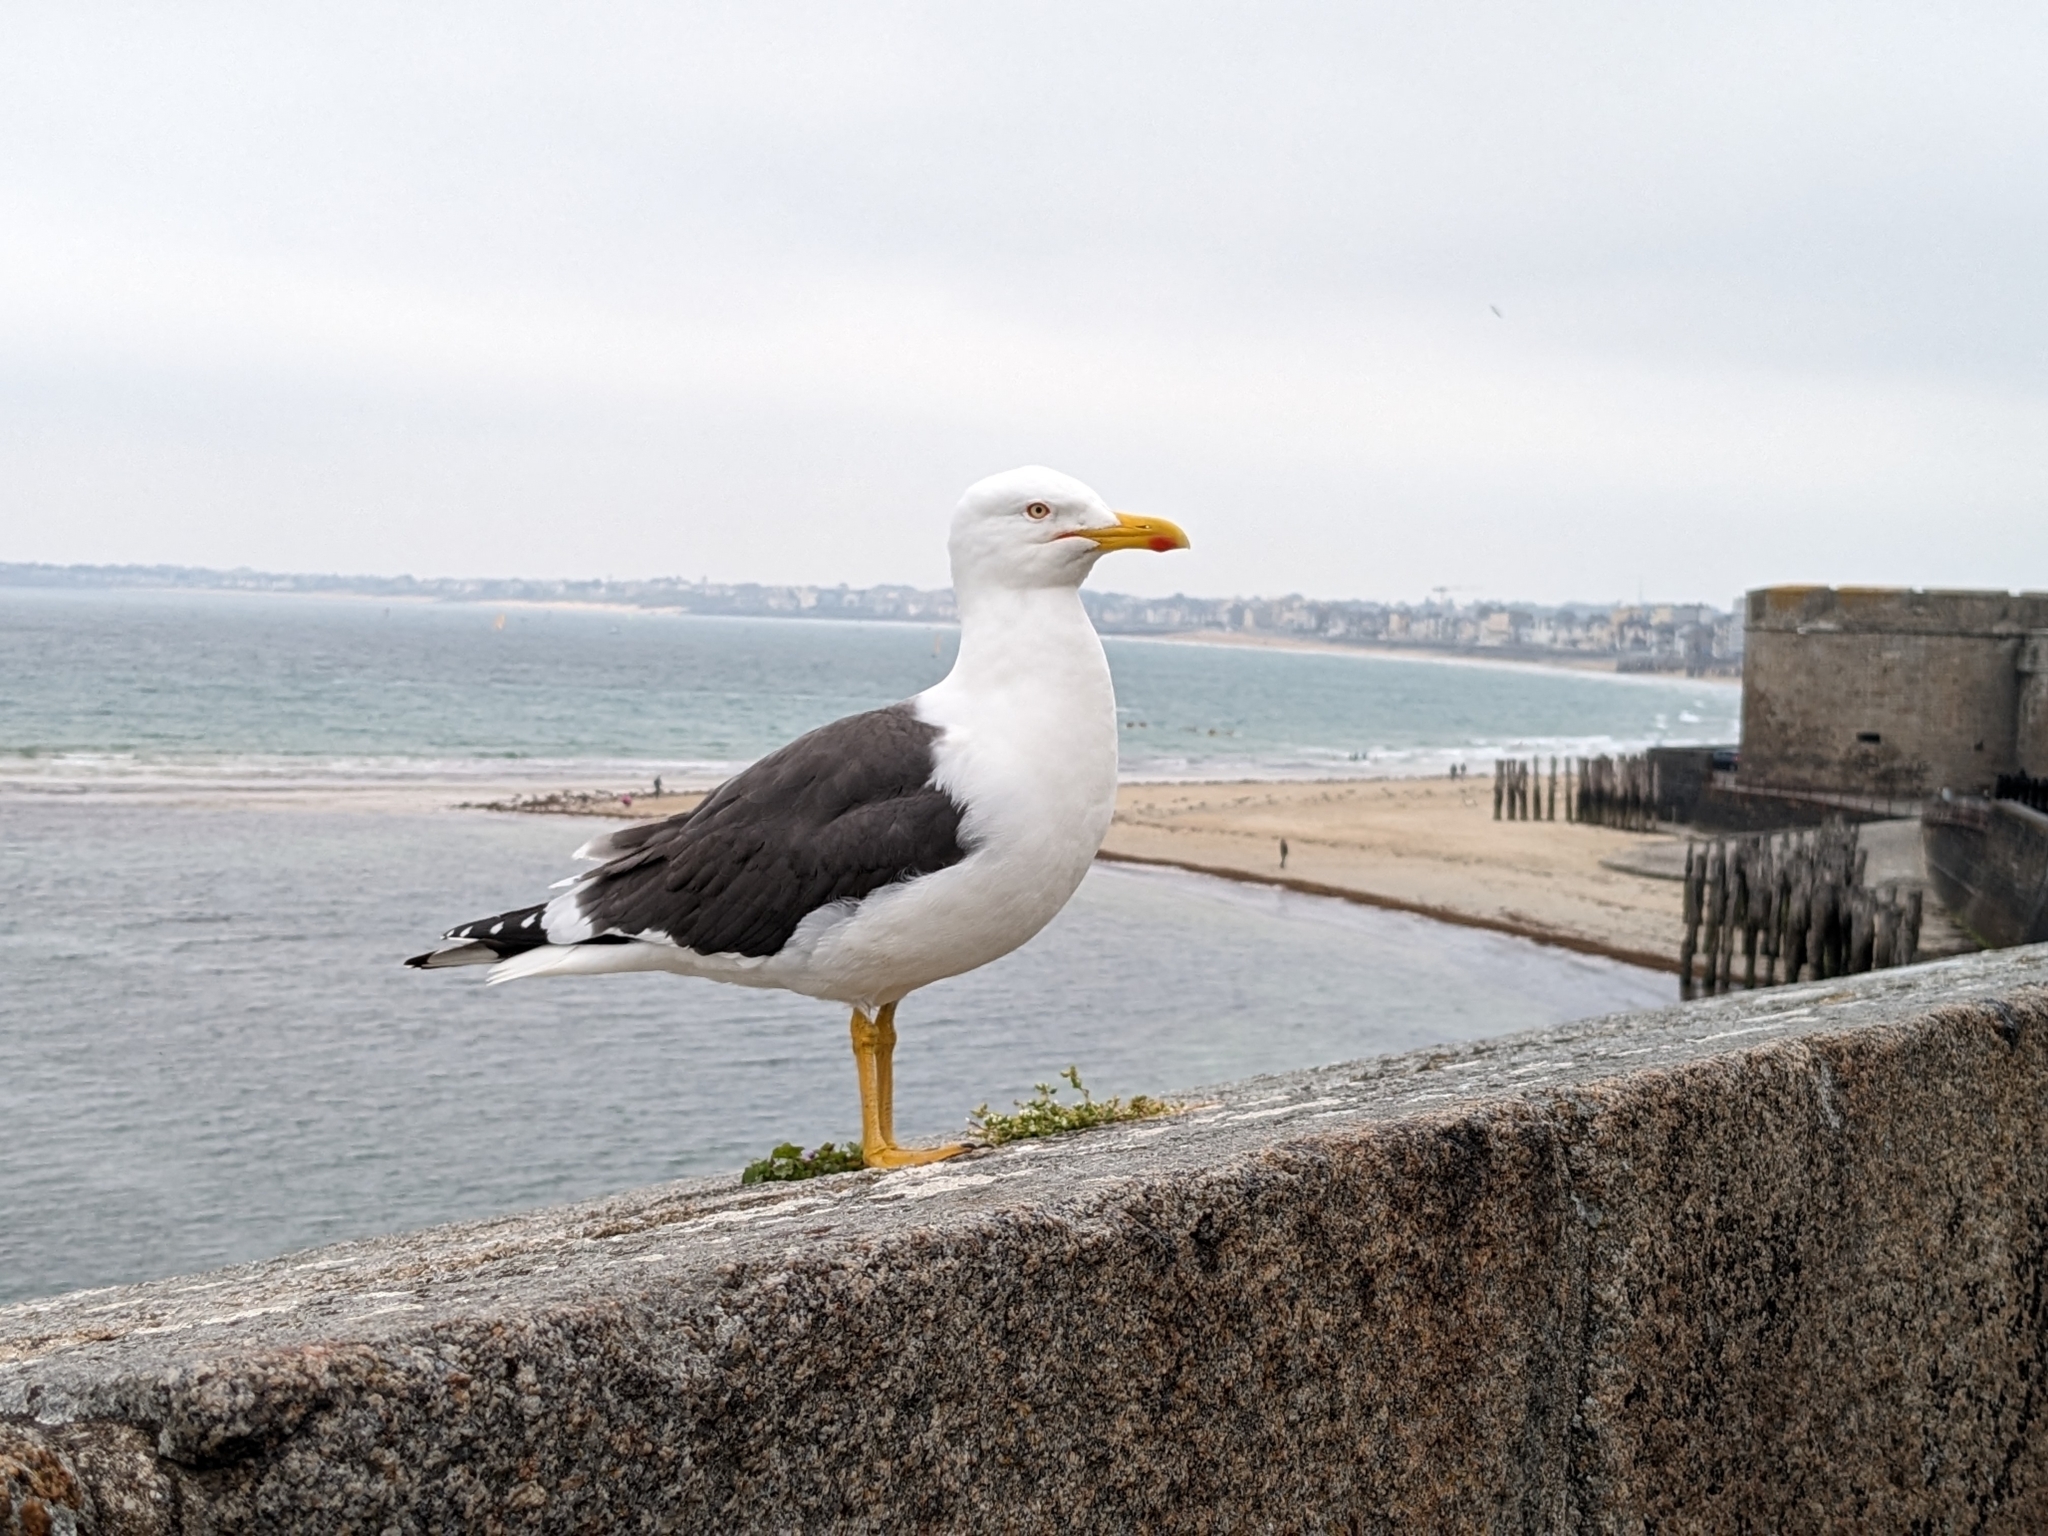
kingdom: Animalia
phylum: Chordata
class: Aves
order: Charadriiformes
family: Laridae
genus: Larus
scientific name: Larus fuscus
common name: Lesser black-backed gull
